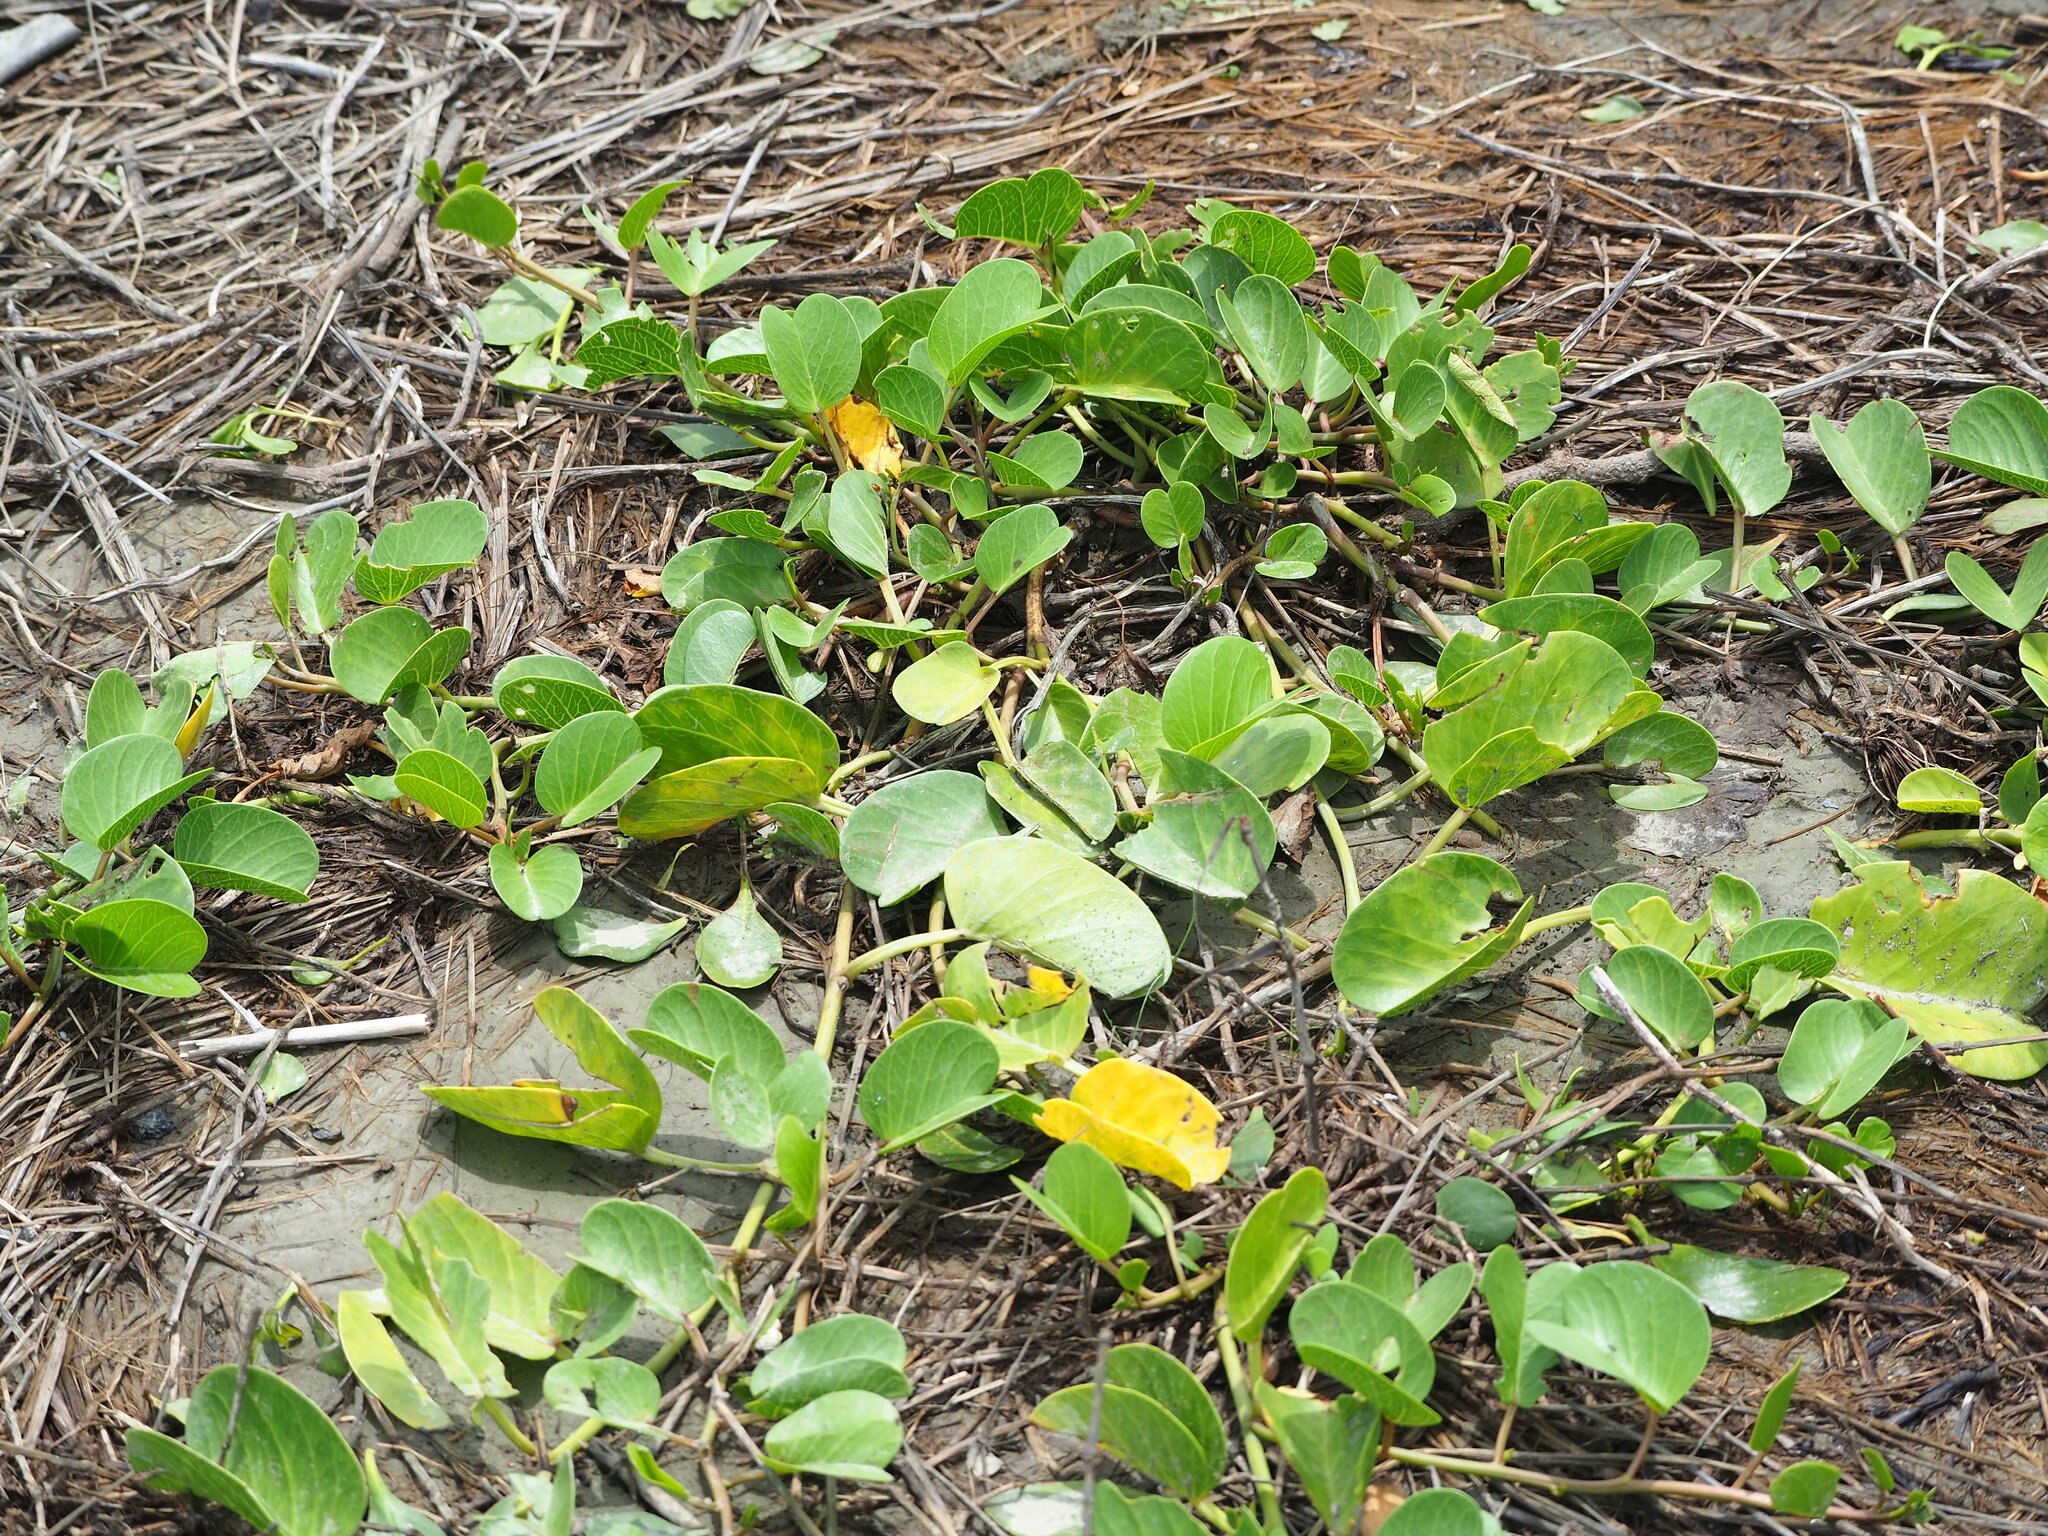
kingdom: Plantae
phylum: Tracheophyta
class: Magnoliopsida
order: Solanales
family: Convolvulaceae
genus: Ipomoea
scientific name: Ipomoea pes-caprae
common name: Beach morning glory
